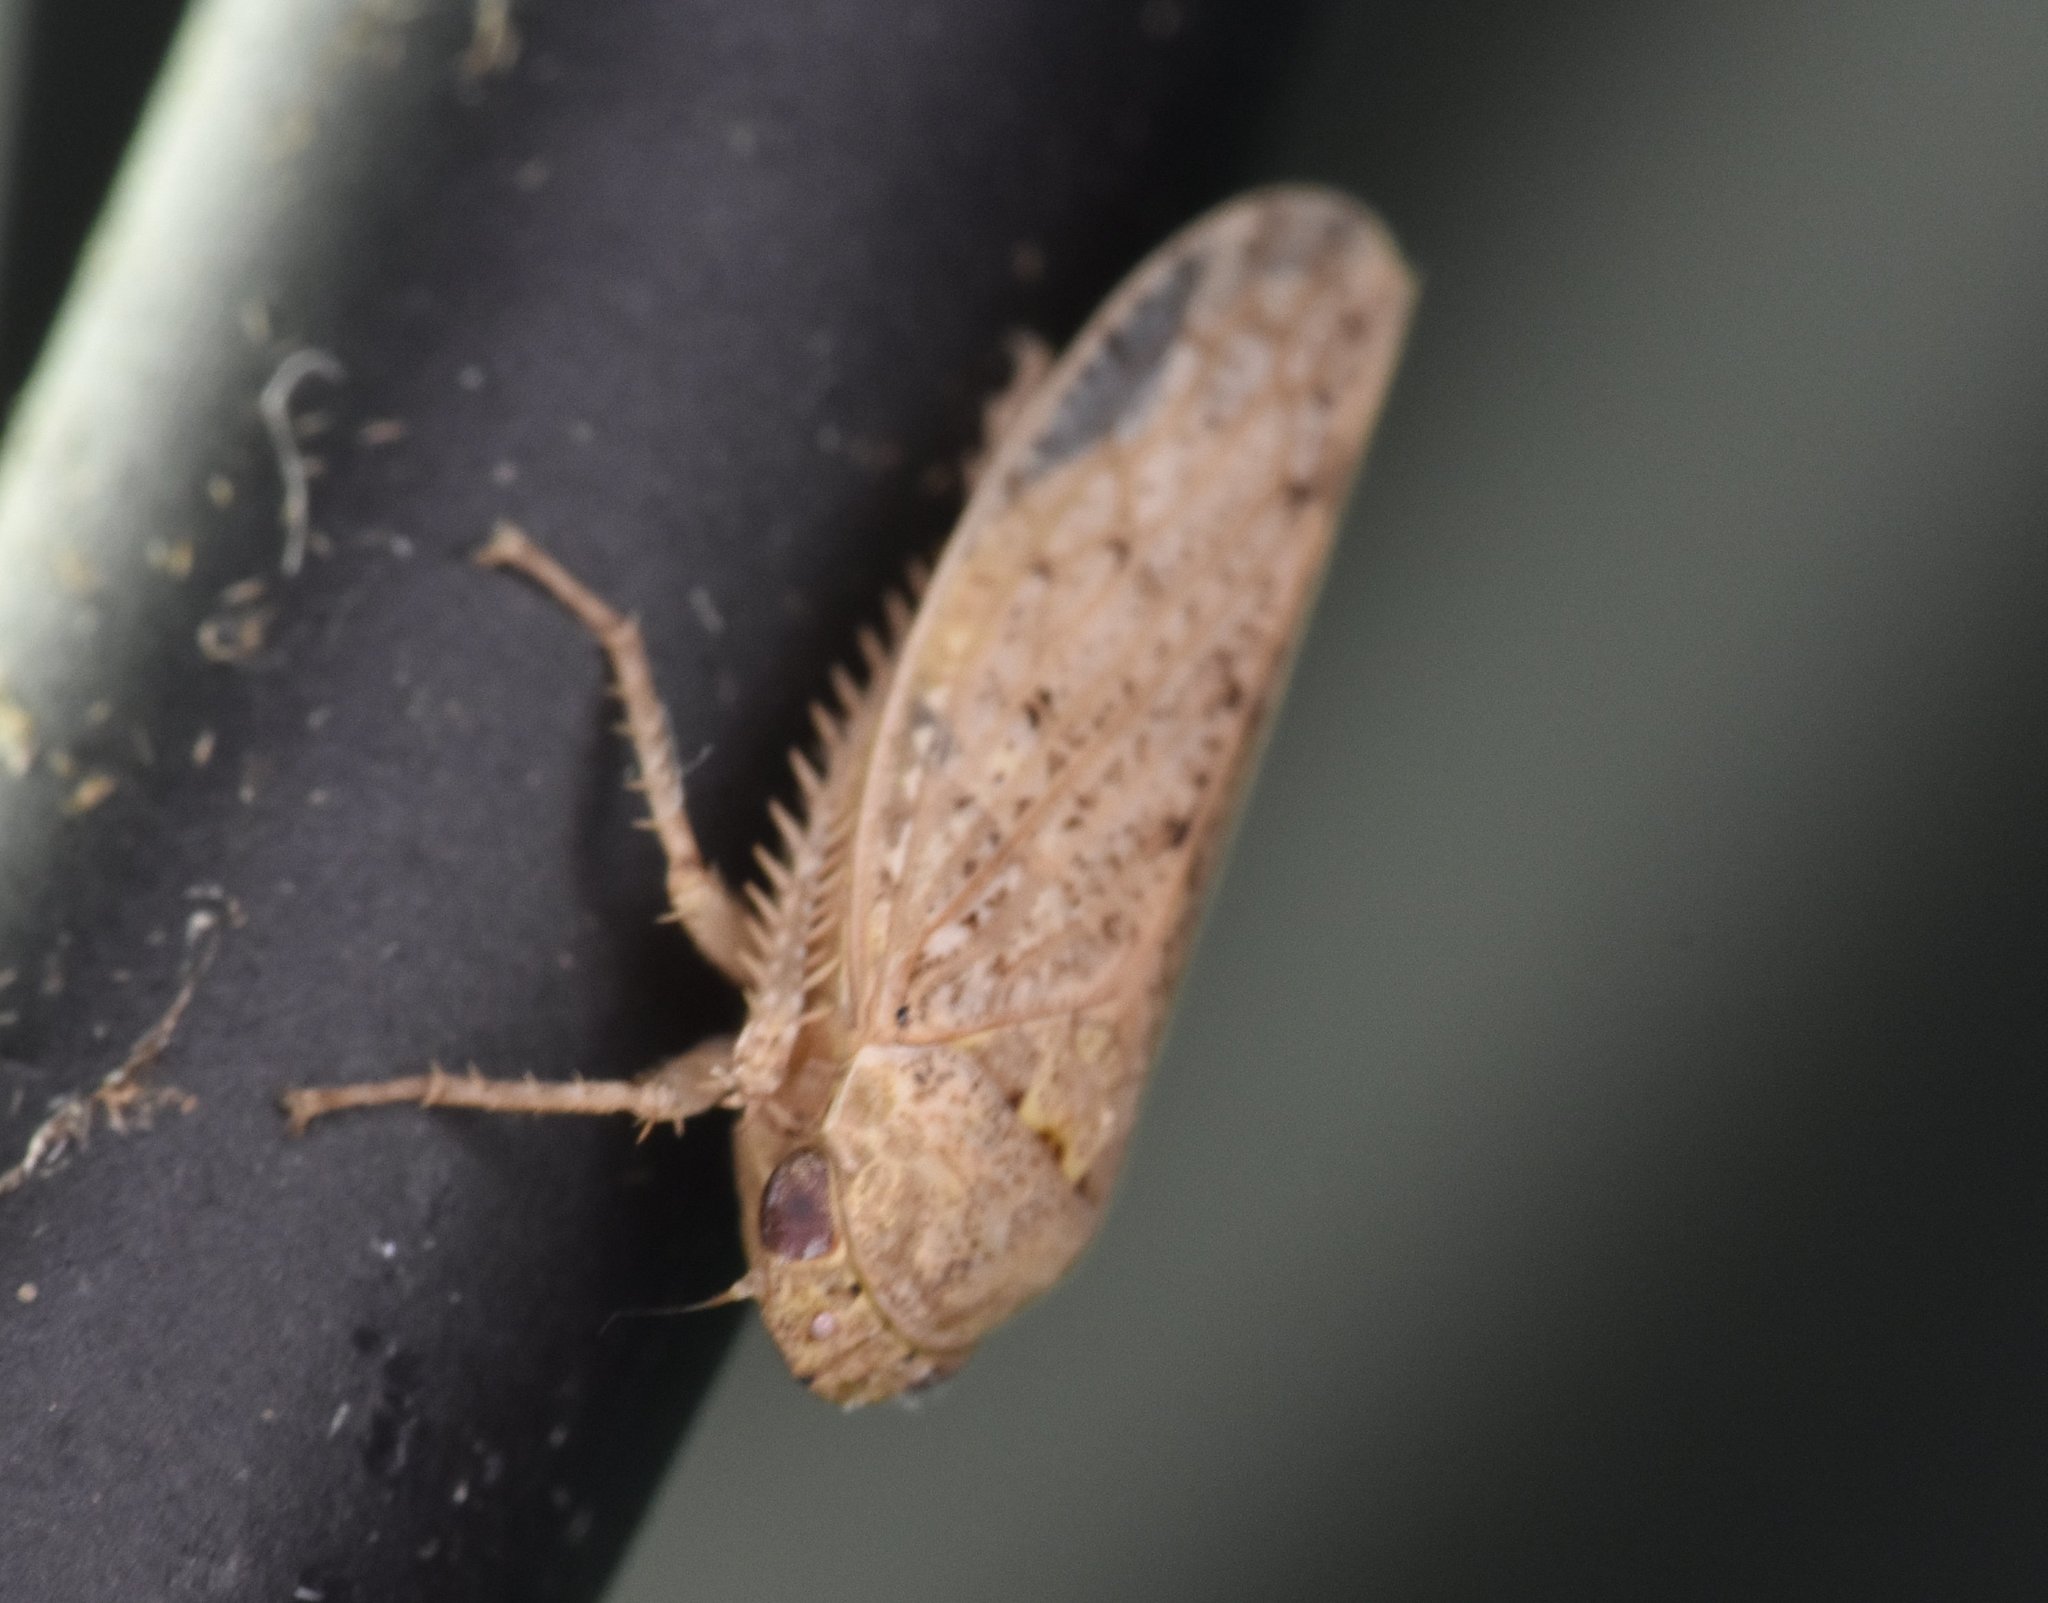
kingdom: Animalia
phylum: Arthropoda
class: Insecta
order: Hemiptera
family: Cicadellidae
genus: Curtara
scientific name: Curtara insularis
